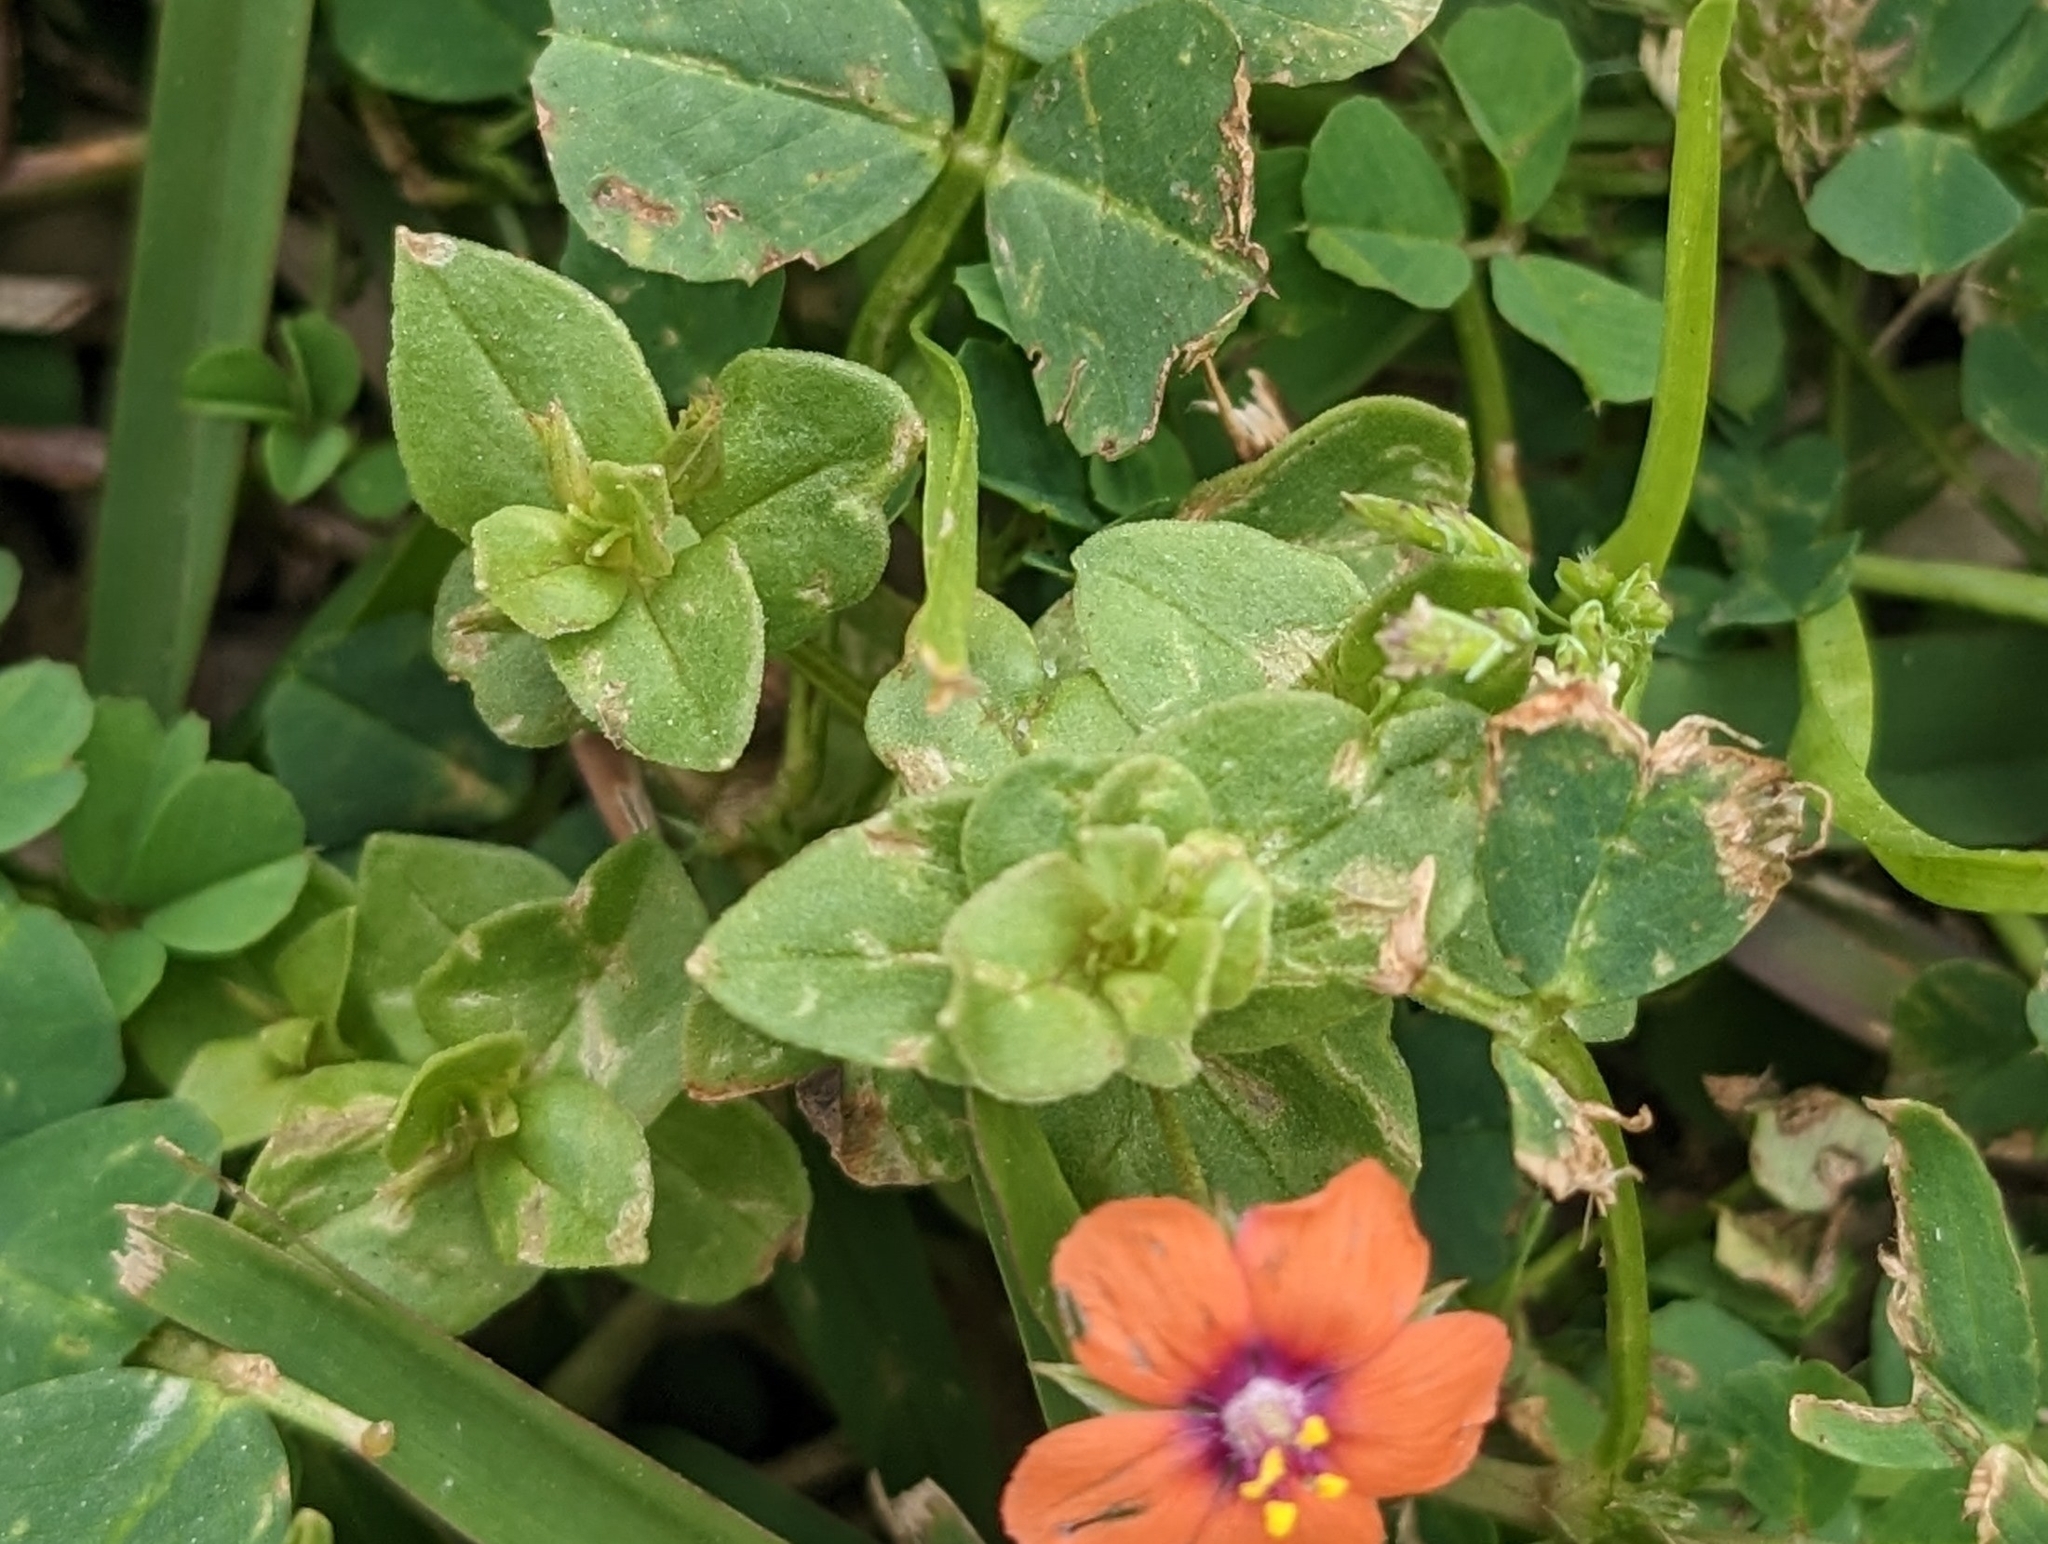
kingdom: Plantae
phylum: Tracheophyta
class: Magnoliopsida
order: Ericales
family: Primulaceae
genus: Lysimachia
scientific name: Lysimachia arvensis
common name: Scarlet pimpernel
